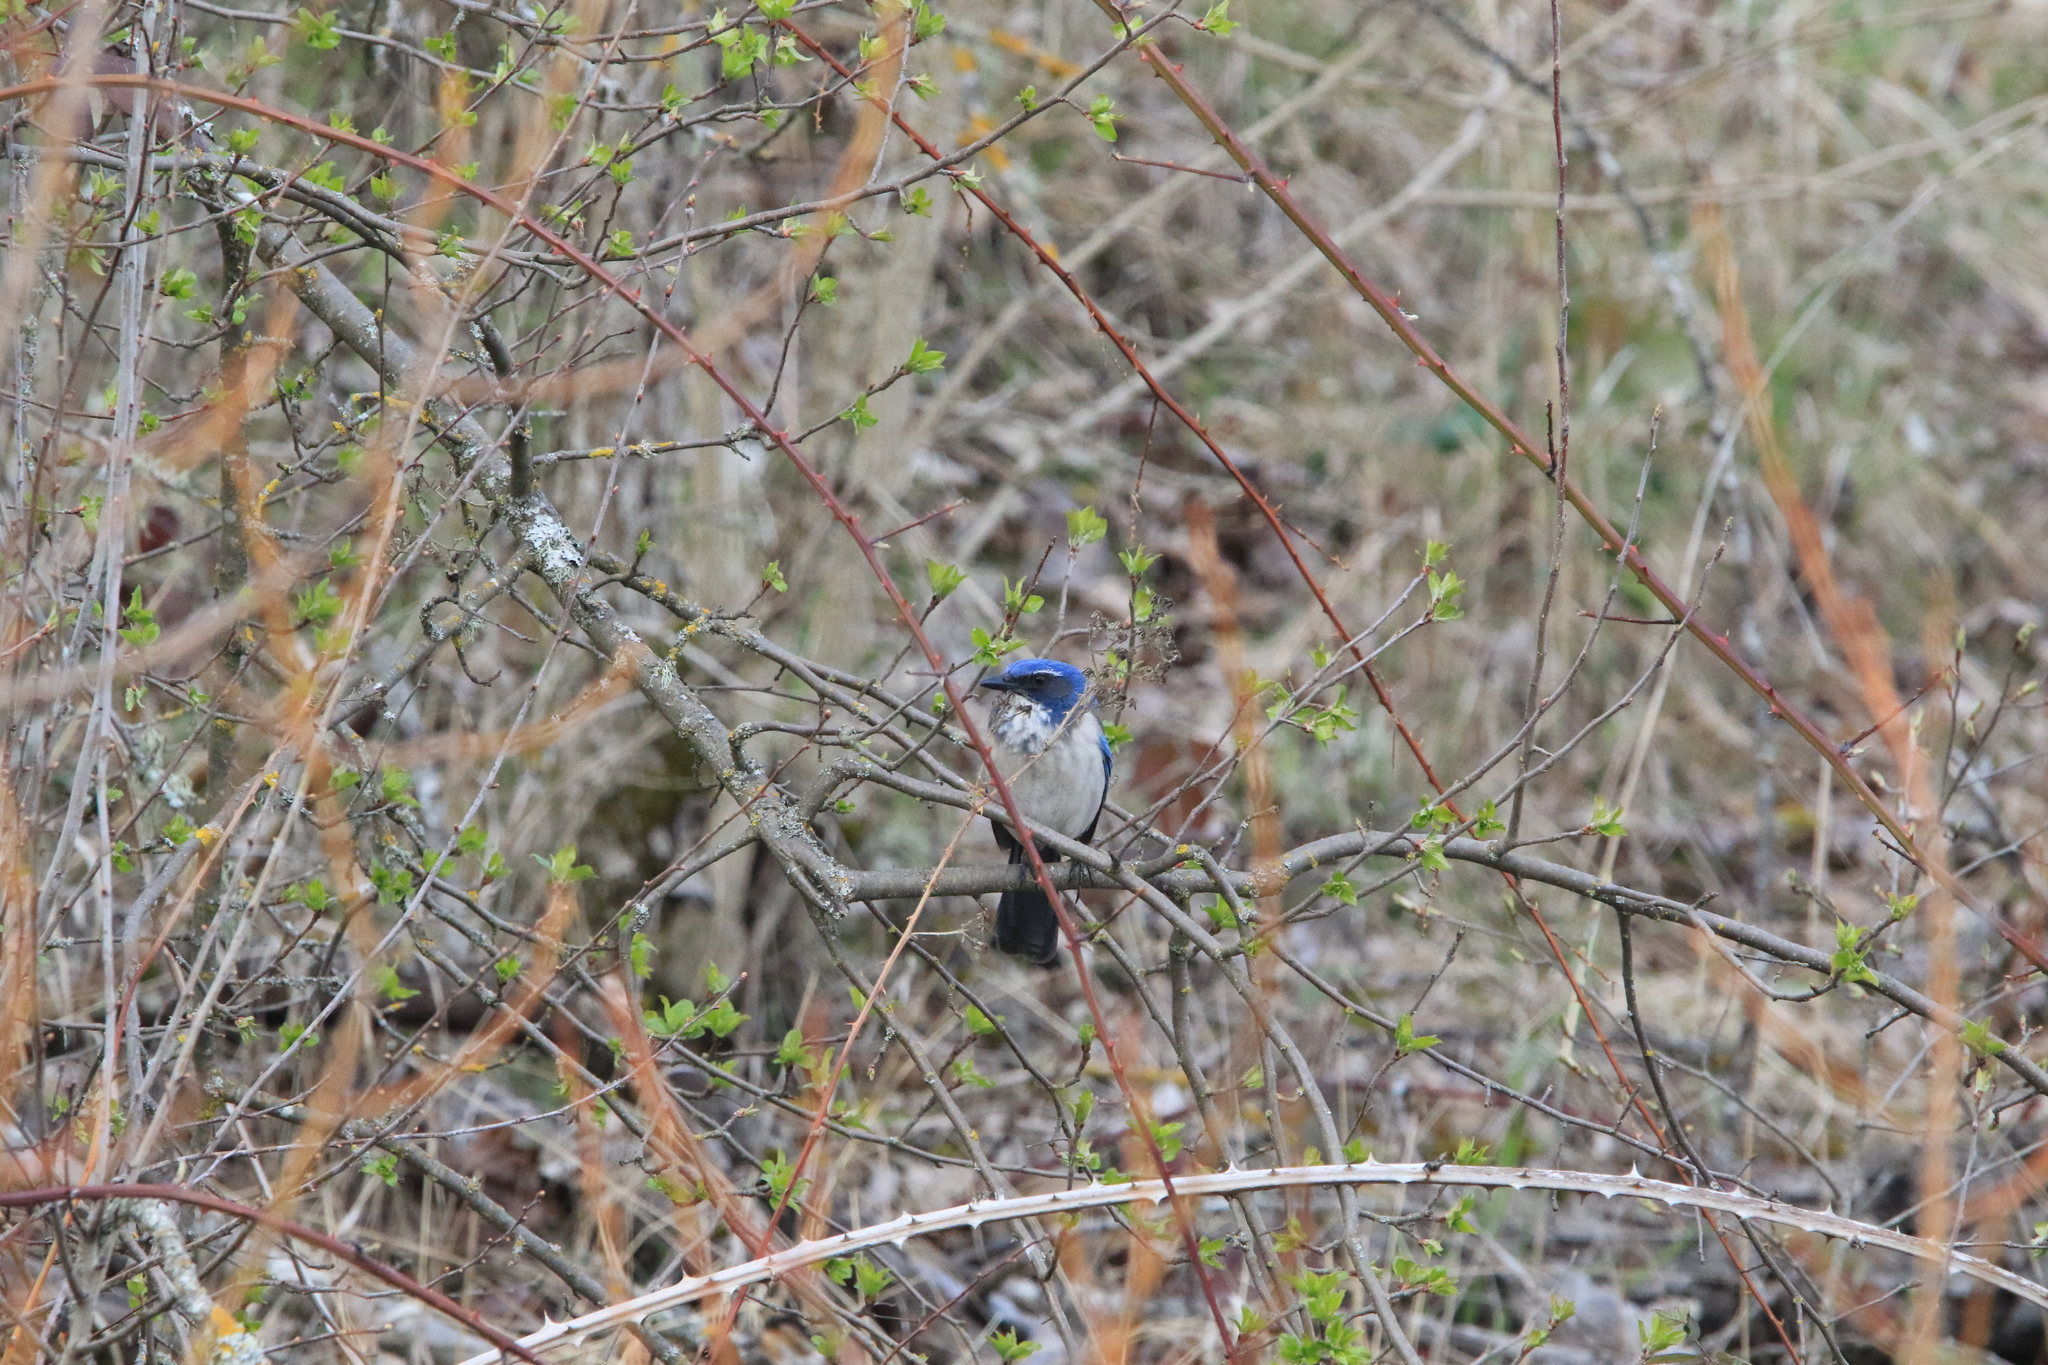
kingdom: Animalia
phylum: Chordata
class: Aves
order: Passeriformes
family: Corvidae
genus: Aphelocoma
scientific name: Aphelocoma californica
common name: California scrub-jay
